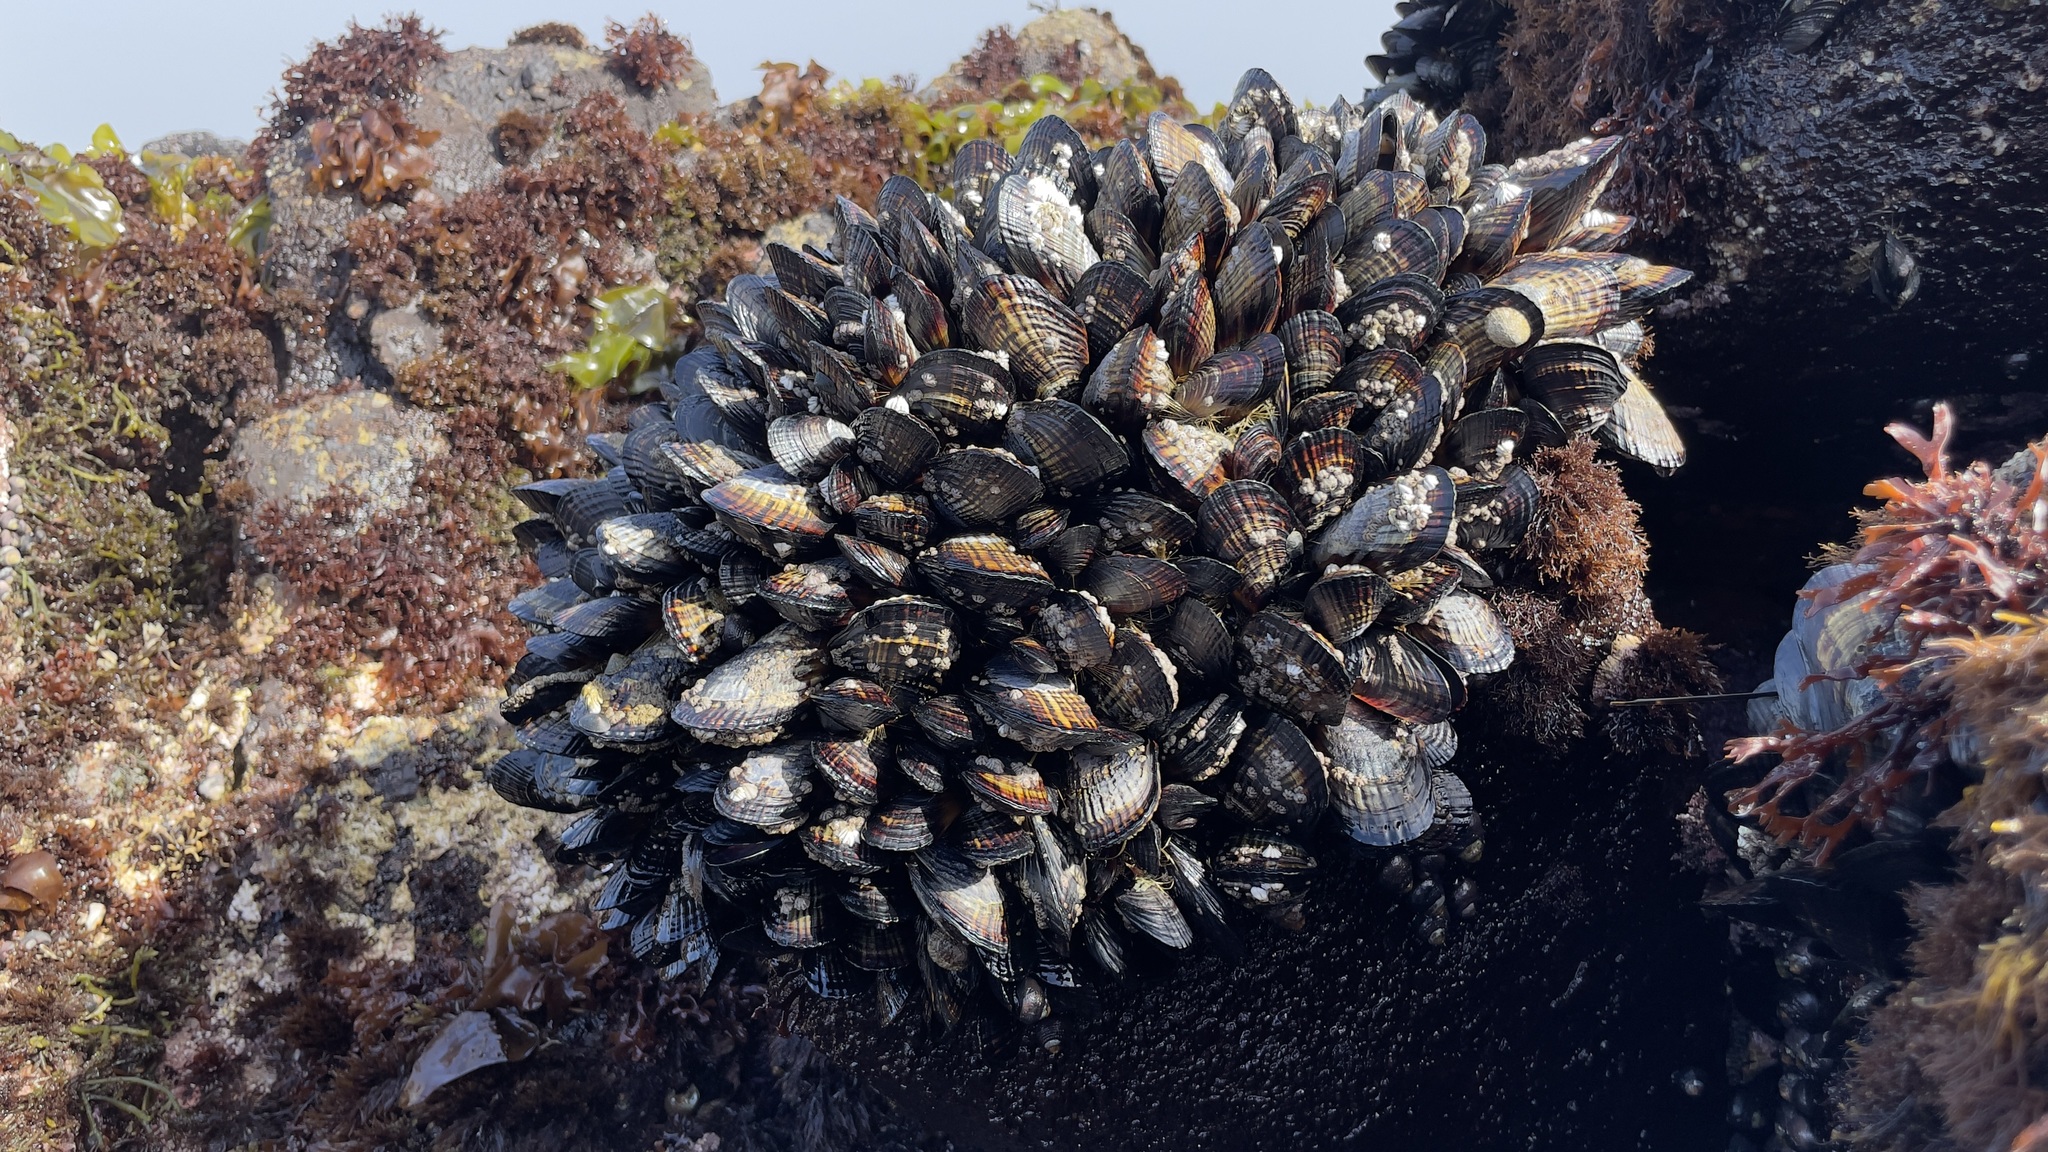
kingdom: Animalia
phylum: Mollusca
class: Bivalvia
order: Mytilida
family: Mytilidae
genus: Mytilus
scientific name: Mytilus californianus
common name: California mussel
